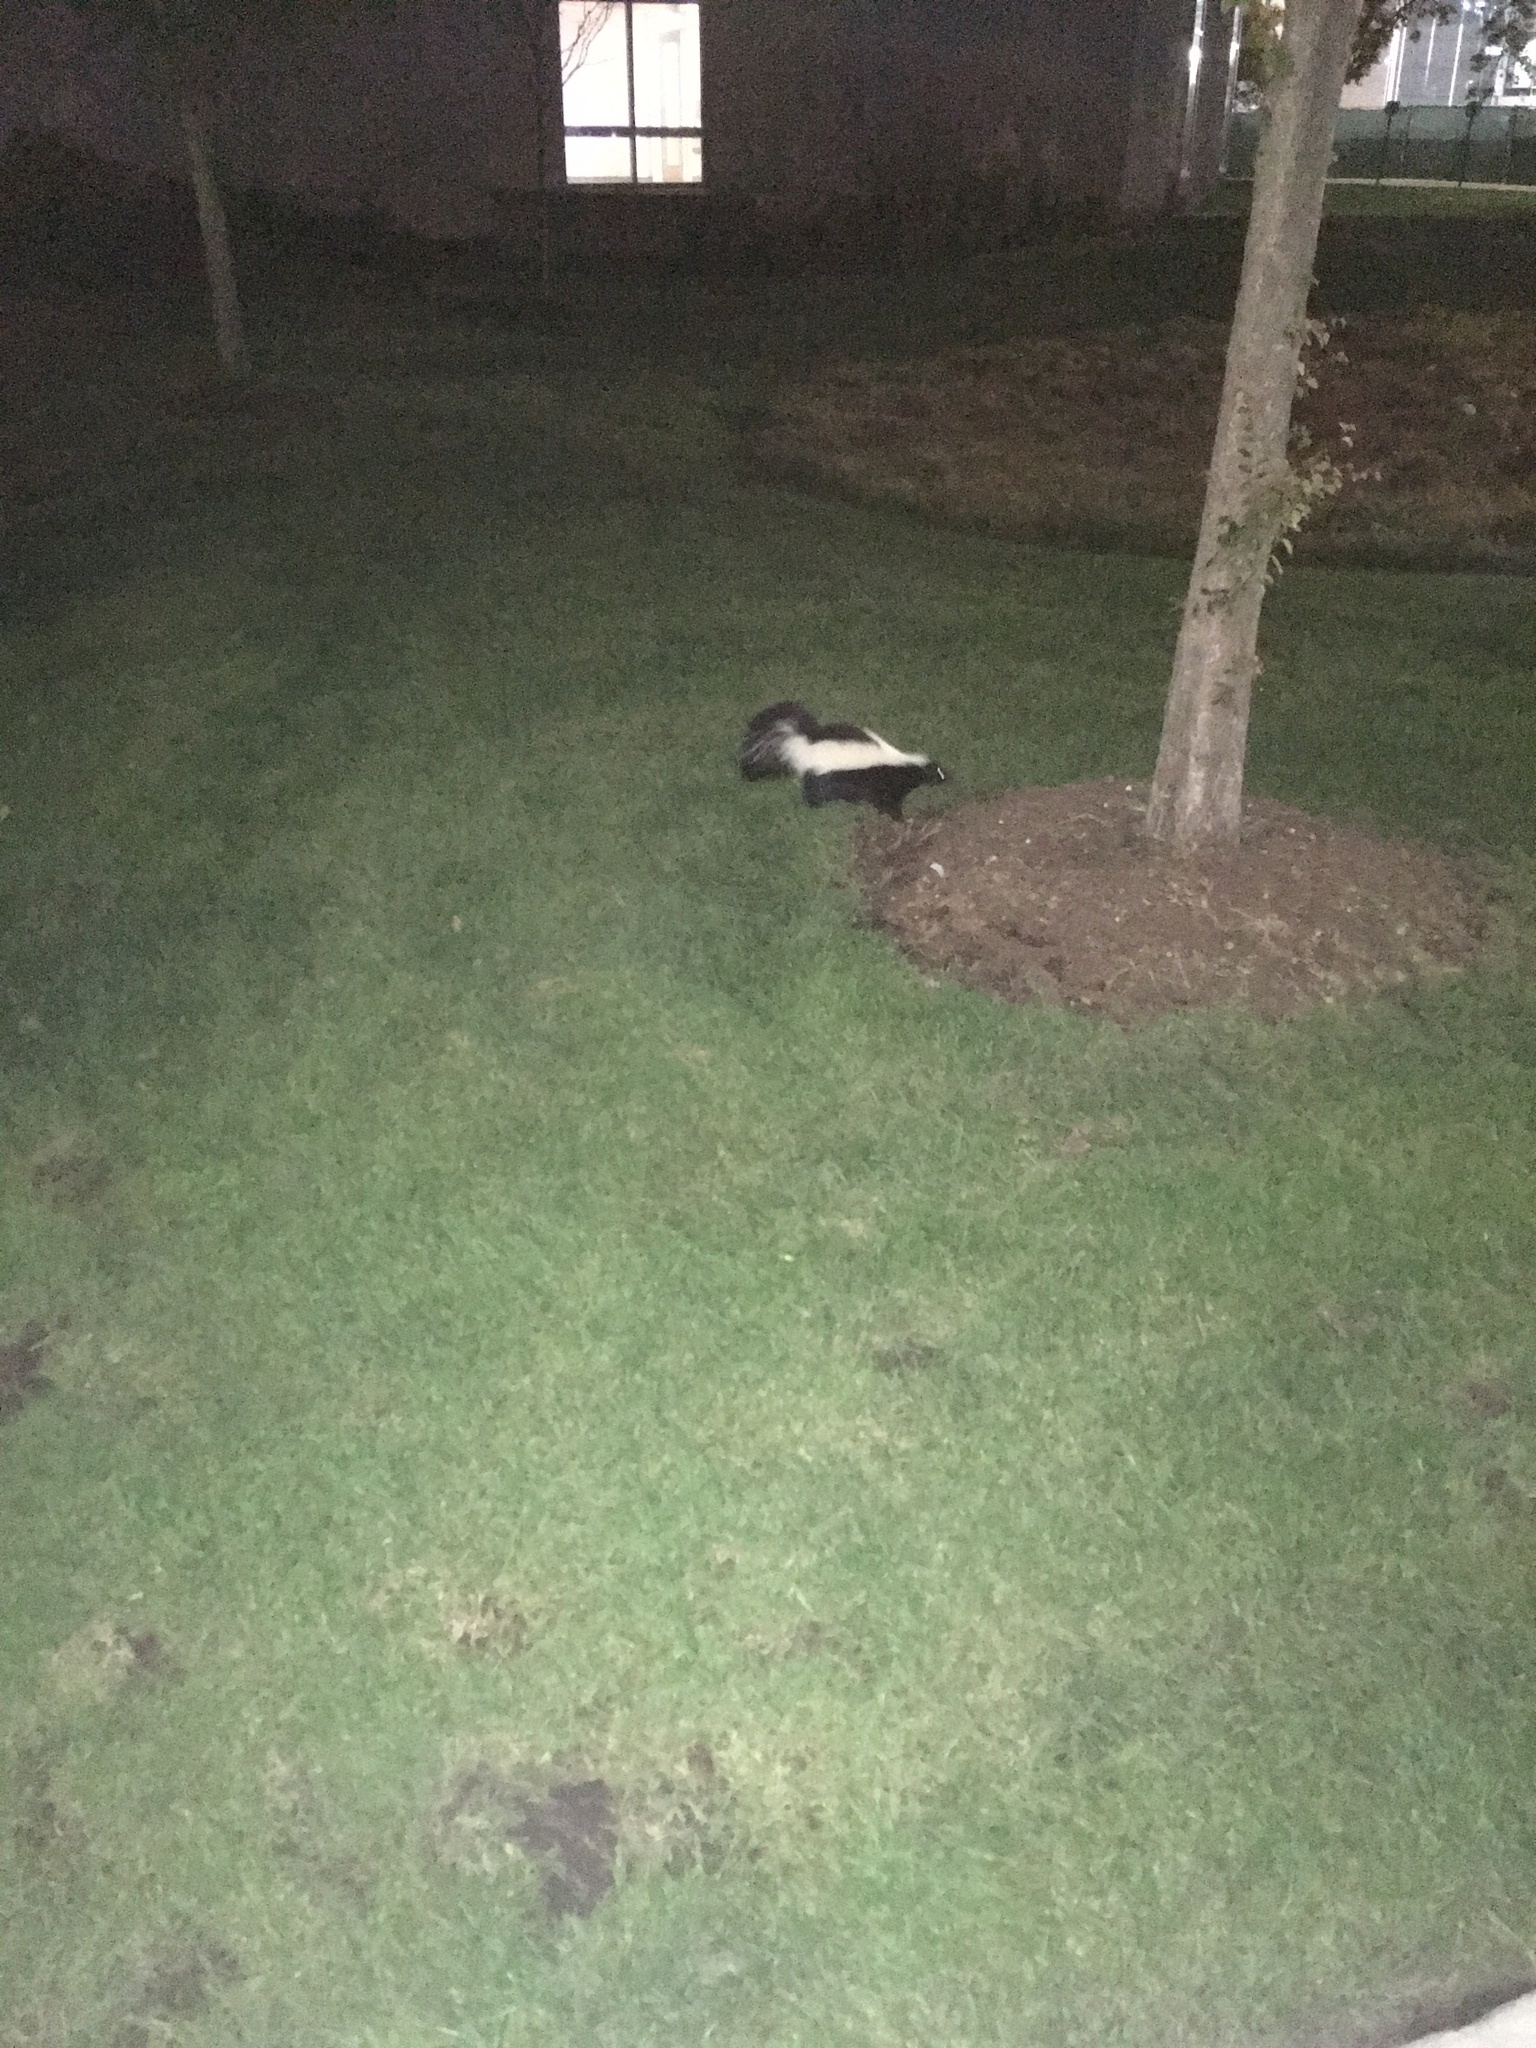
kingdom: Animalia
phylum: Chordata
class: Mammalia
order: Carnivora
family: Mephitidae
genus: Mephitis
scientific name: Mephitis mephitis
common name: Striped skunk
